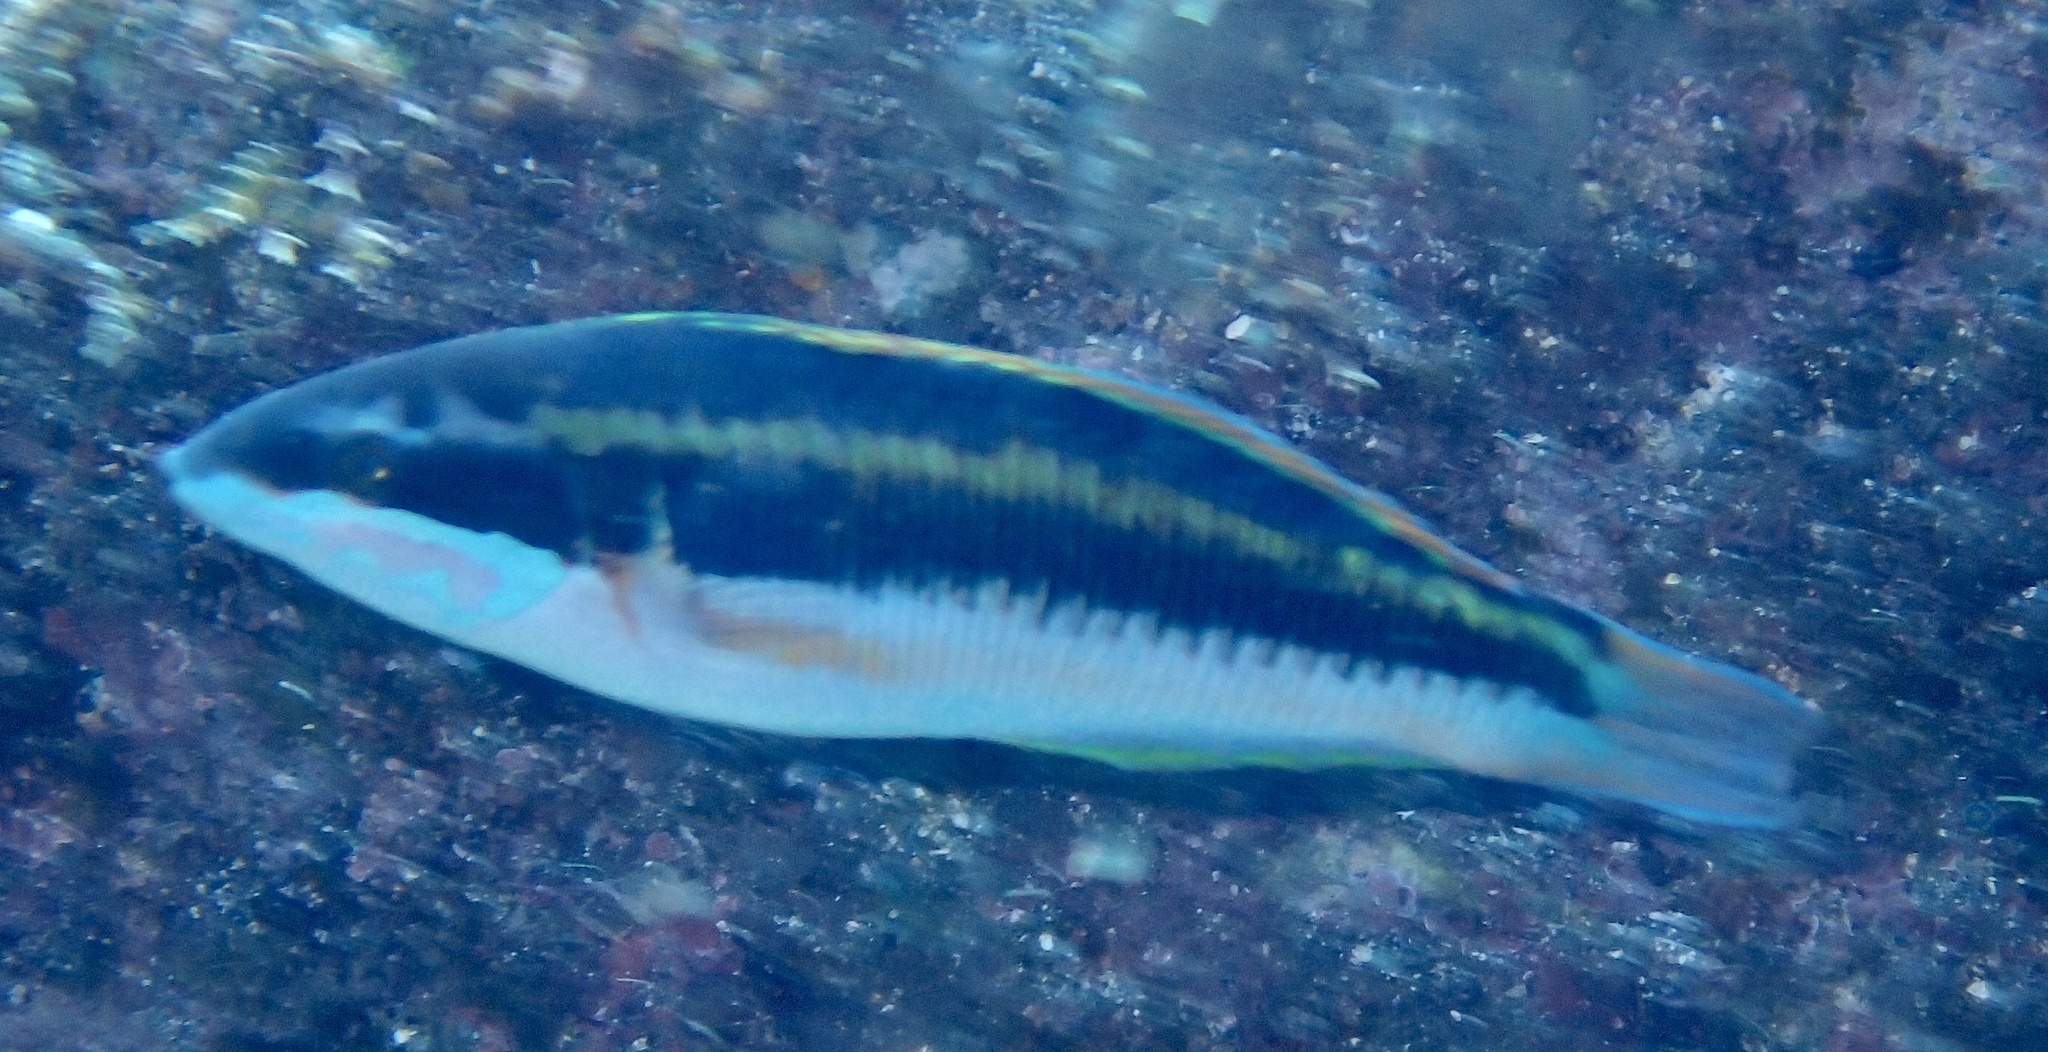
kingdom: Animalia
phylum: Chordata
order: Perciformes
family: Labridae
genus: Thalassoma
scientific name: Thalassoma pavo
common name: Ornate wrasse
